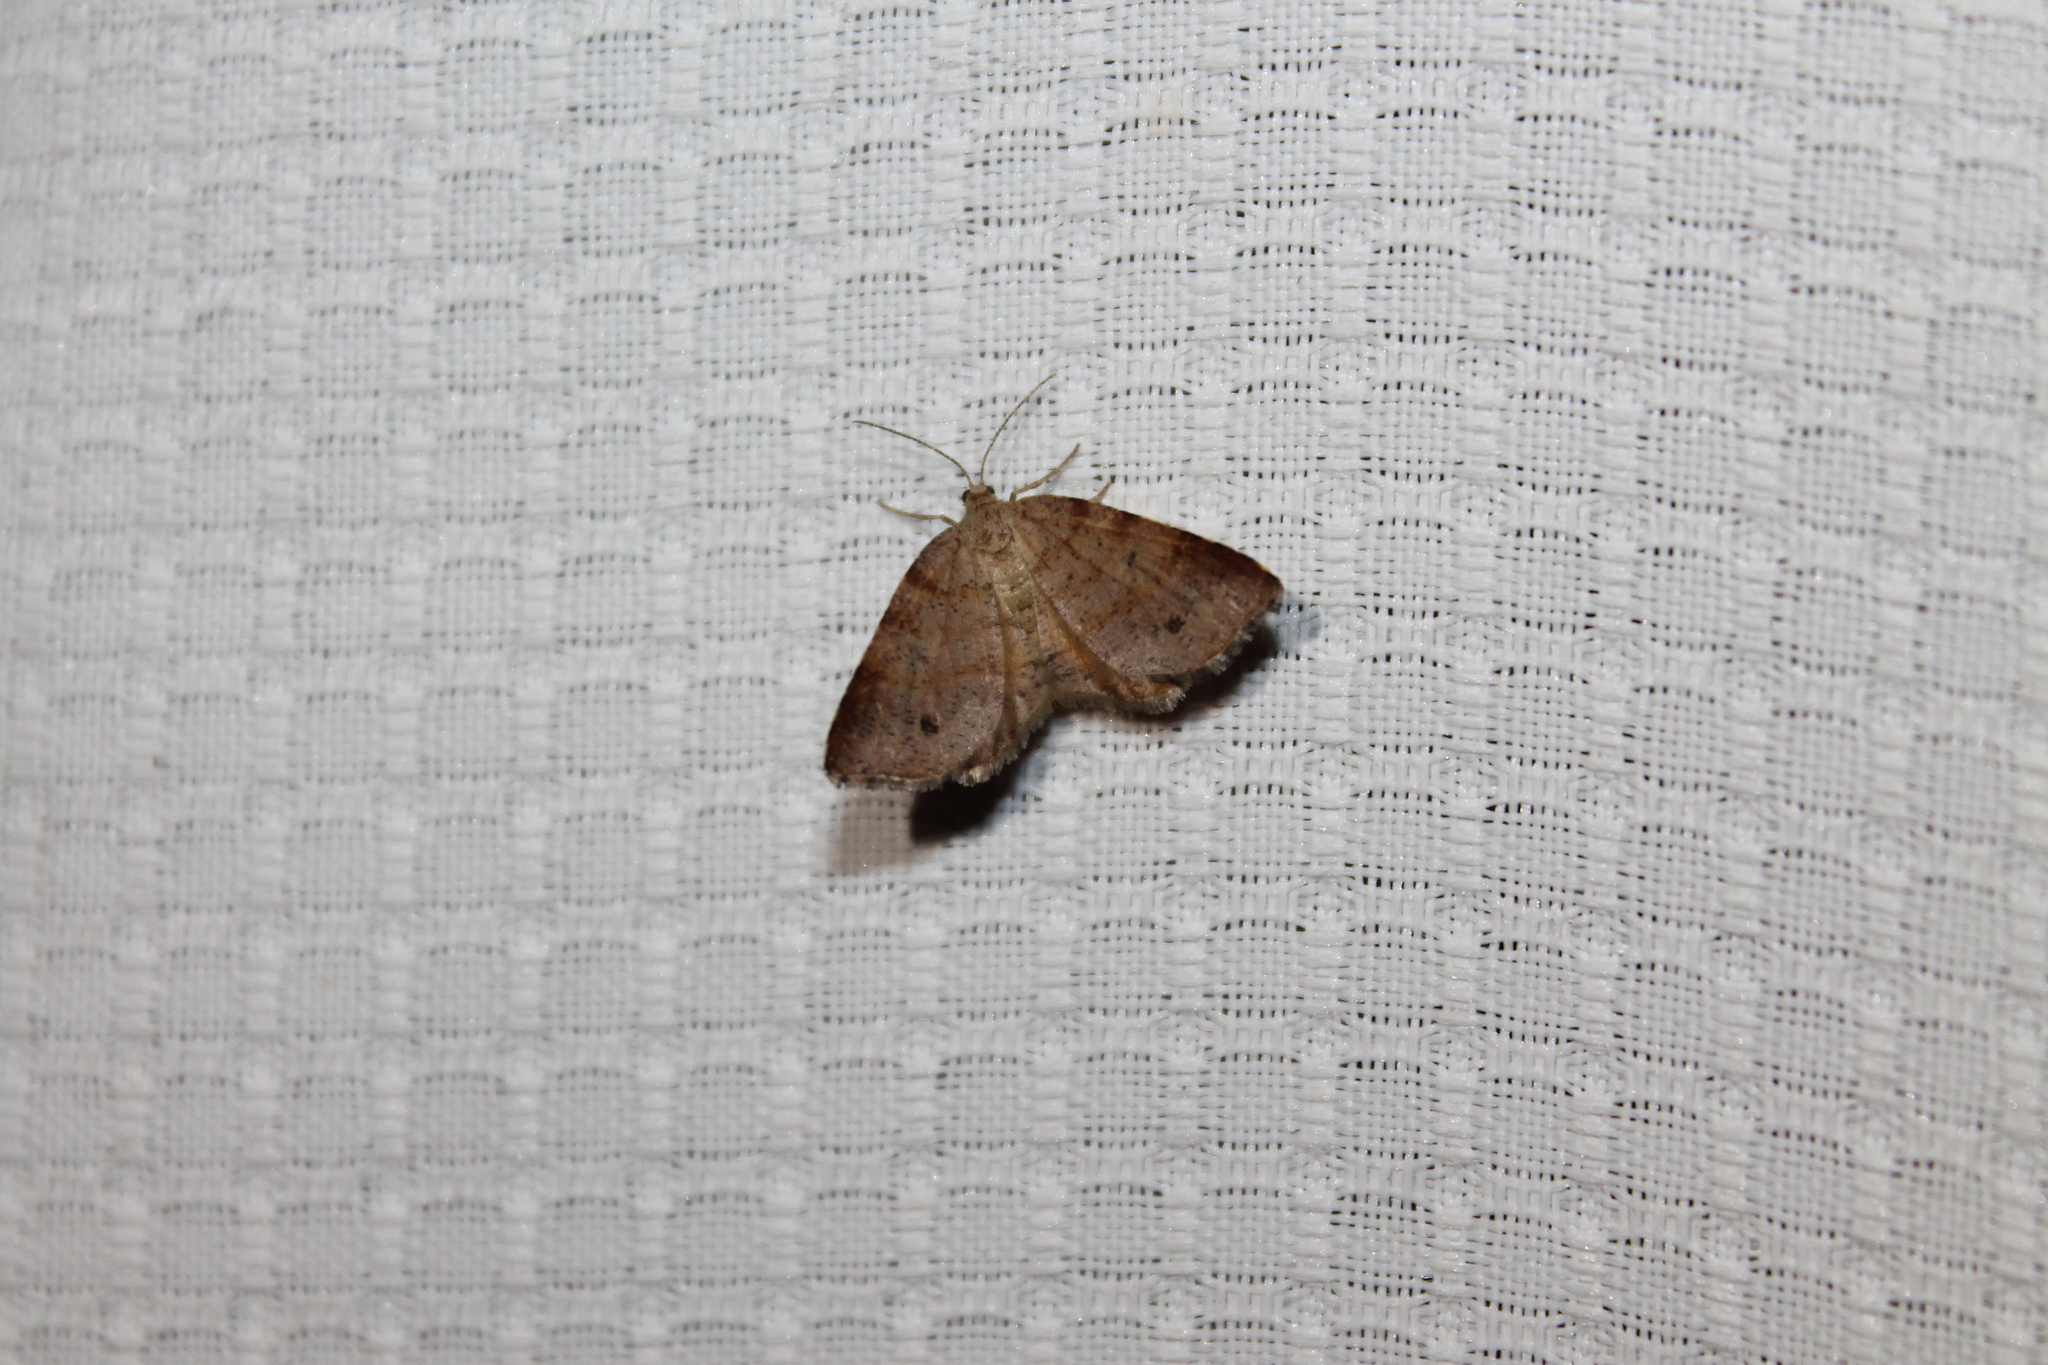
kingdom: Animalia
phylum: Arthropoda
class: Insecta
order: Lepidoptera
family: Geometridae
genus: Mellilla
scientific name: Mellilla xanthometata
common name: Orange wing moth
